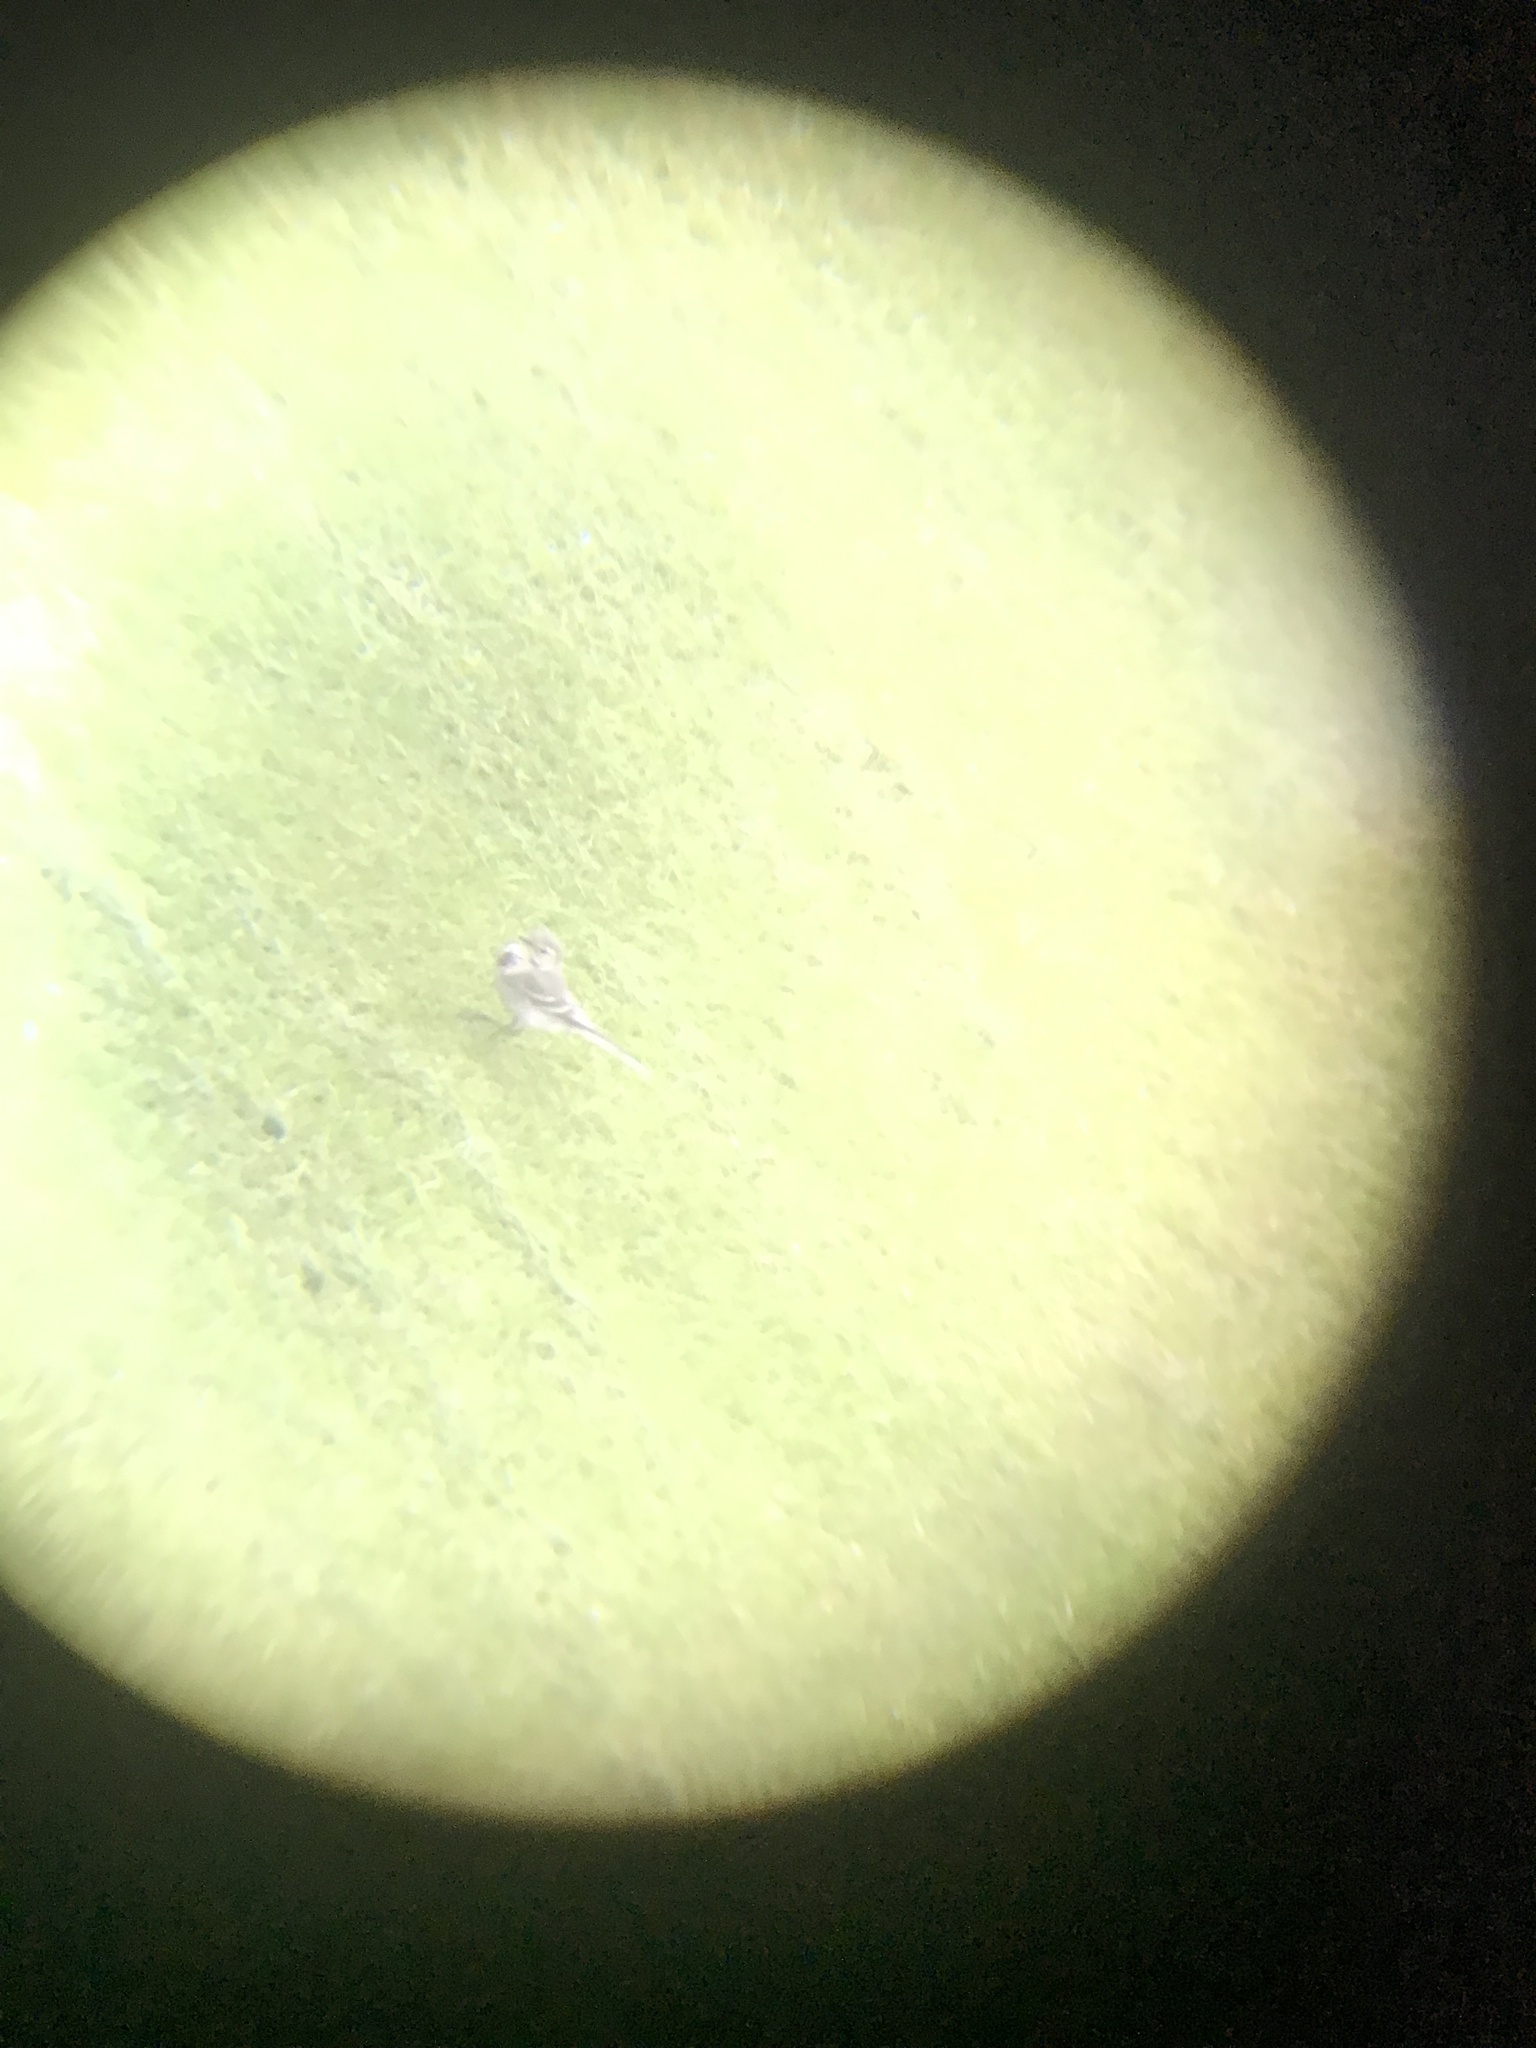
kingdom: Animalia
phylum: Chordata
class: Aves
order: Passeriformes
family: Motacillidae
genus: Motacilla
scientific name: Motacilla alba
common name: White wagtail
